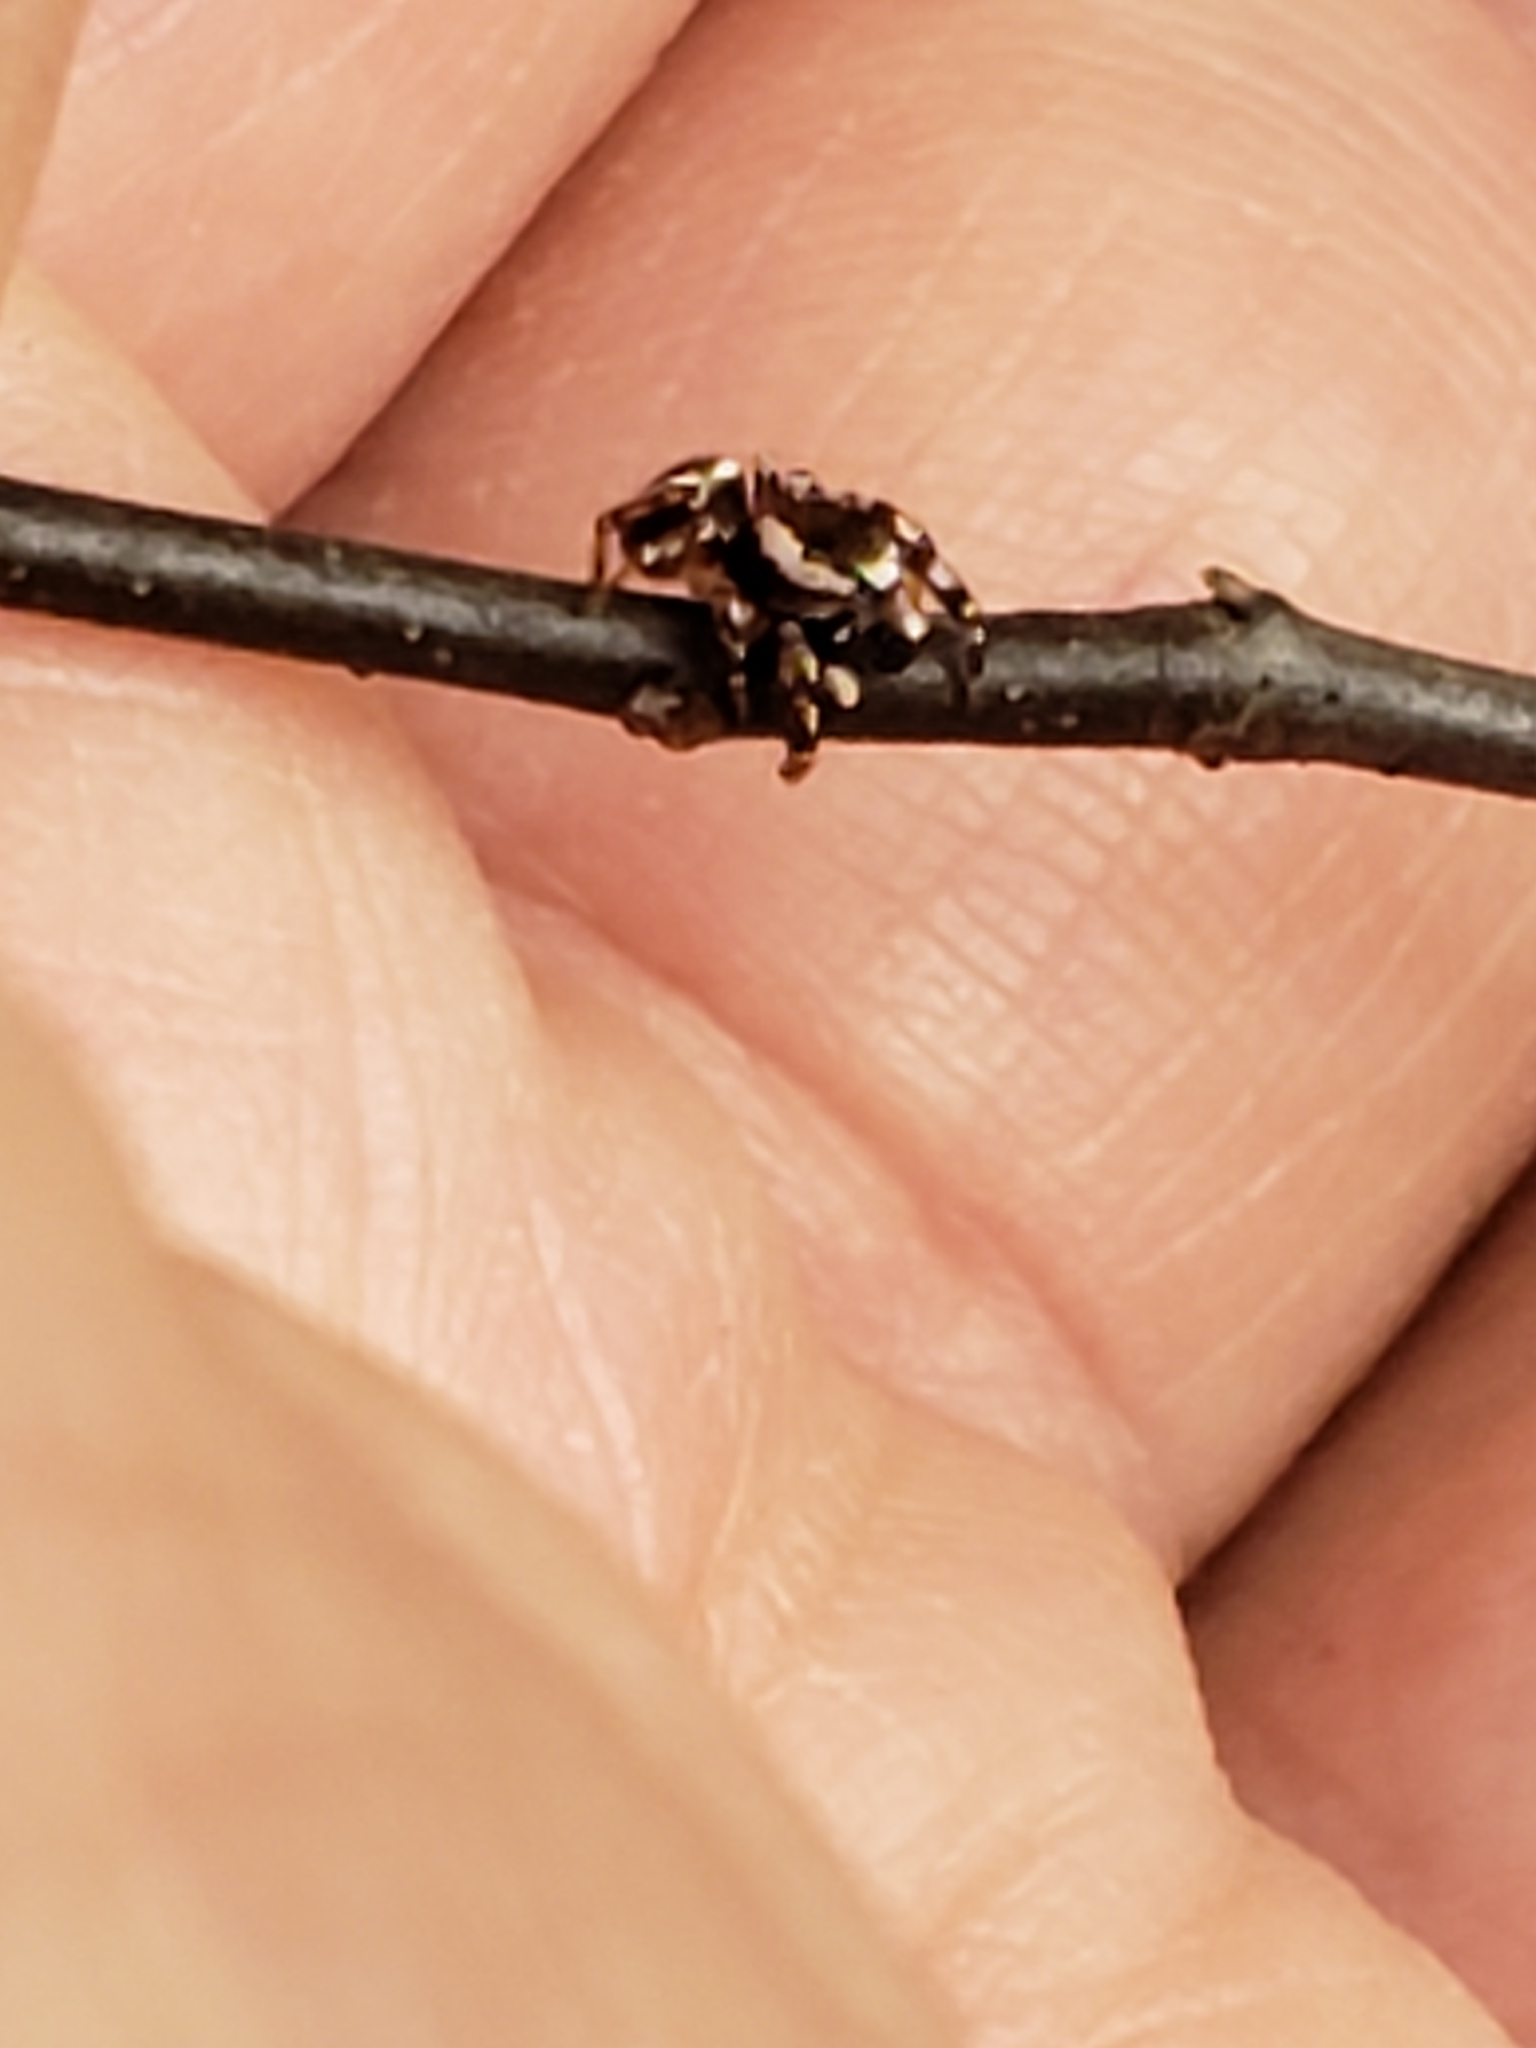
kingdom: Animalia
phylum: Arthropoda
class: Arachnida
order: Araneae
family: Salticidae
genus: Pelegrina
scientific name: Pelegrina proterva
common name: Common white-cheeked jumping spider
